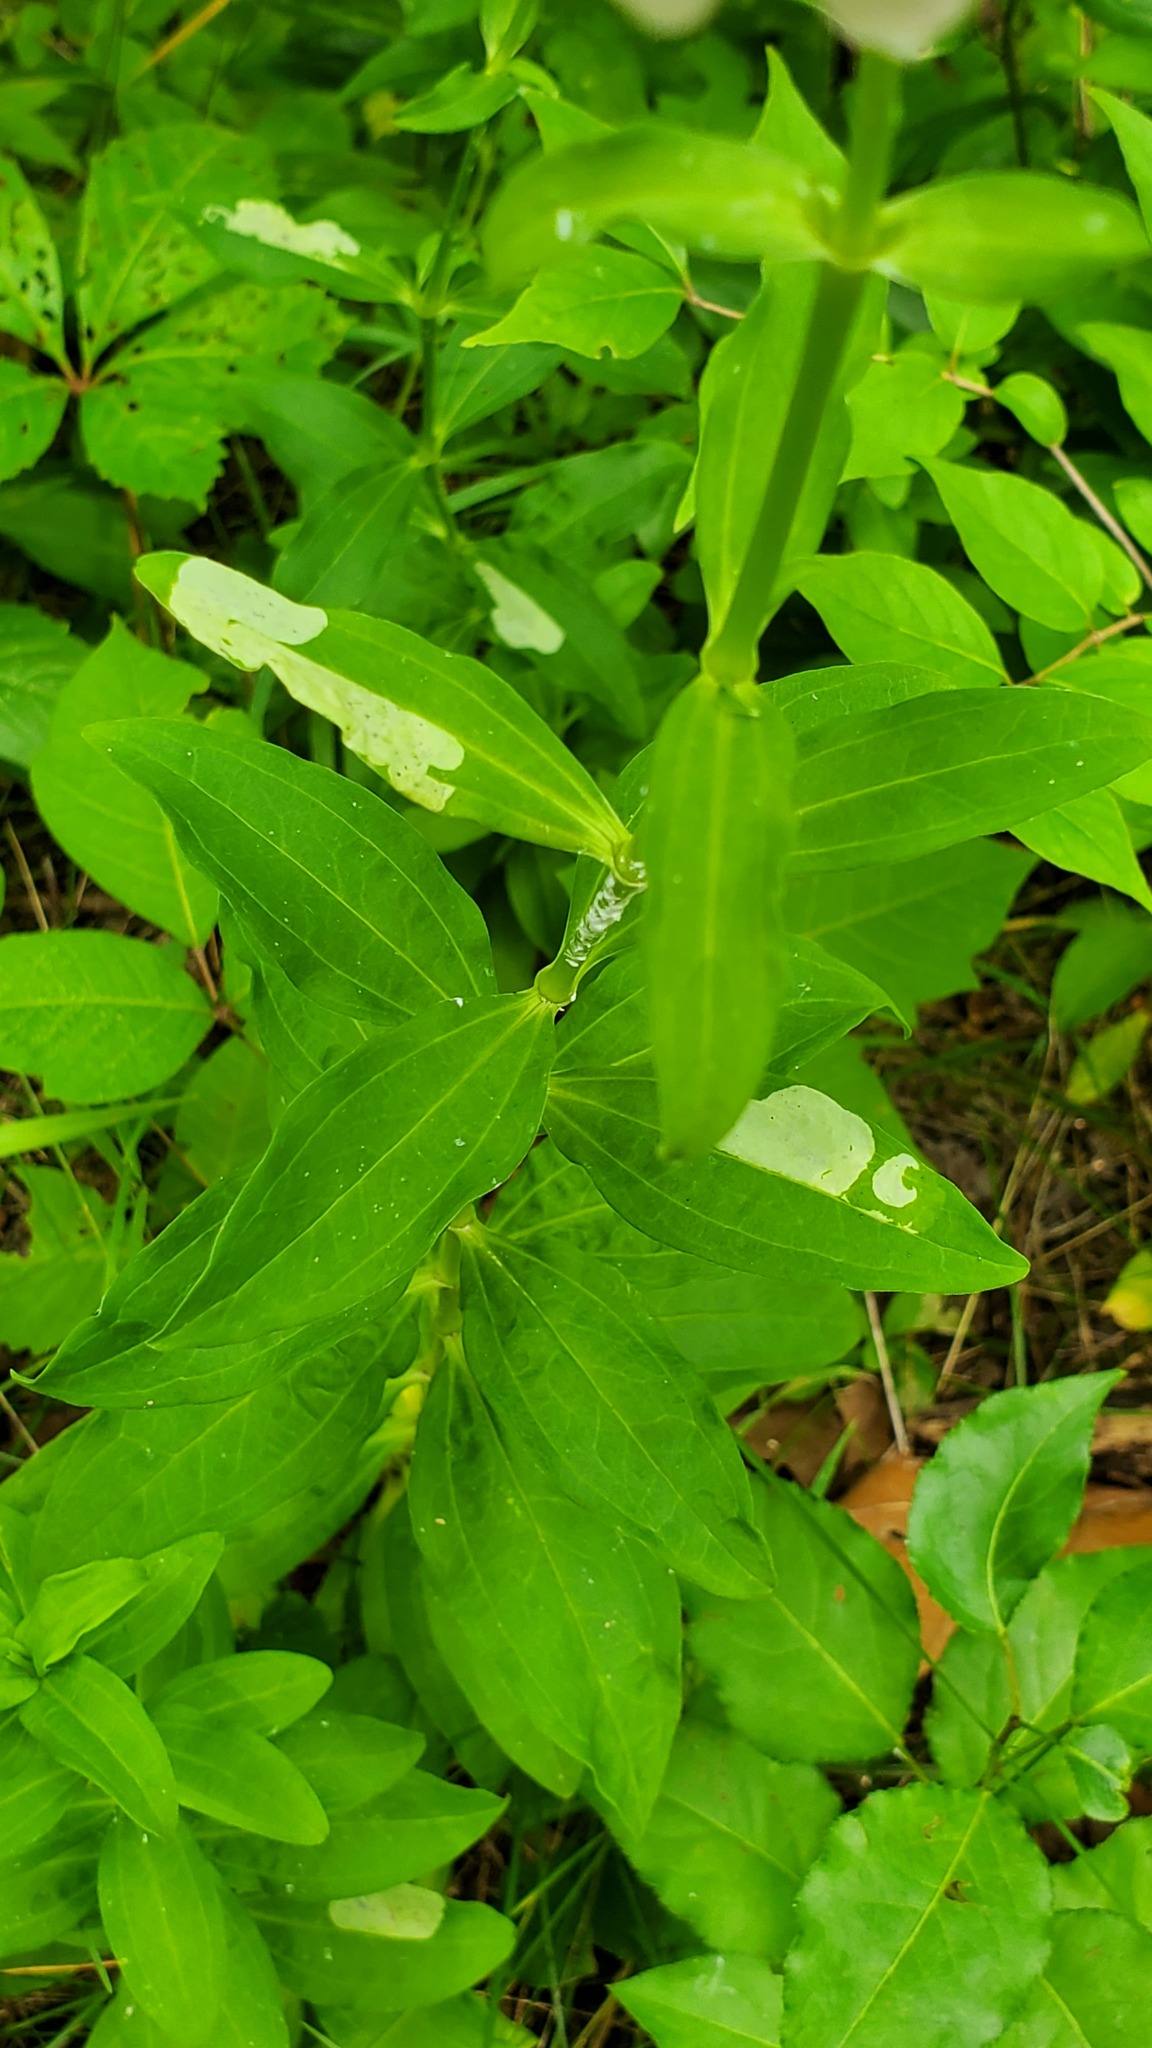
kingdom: Plantae
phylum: Tracheophyta
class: Magnoliopsida
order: Caryophyllales
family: Caryophyllaceae
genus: Saponaria
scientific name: Saponaria officinalis
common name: Soapwort
